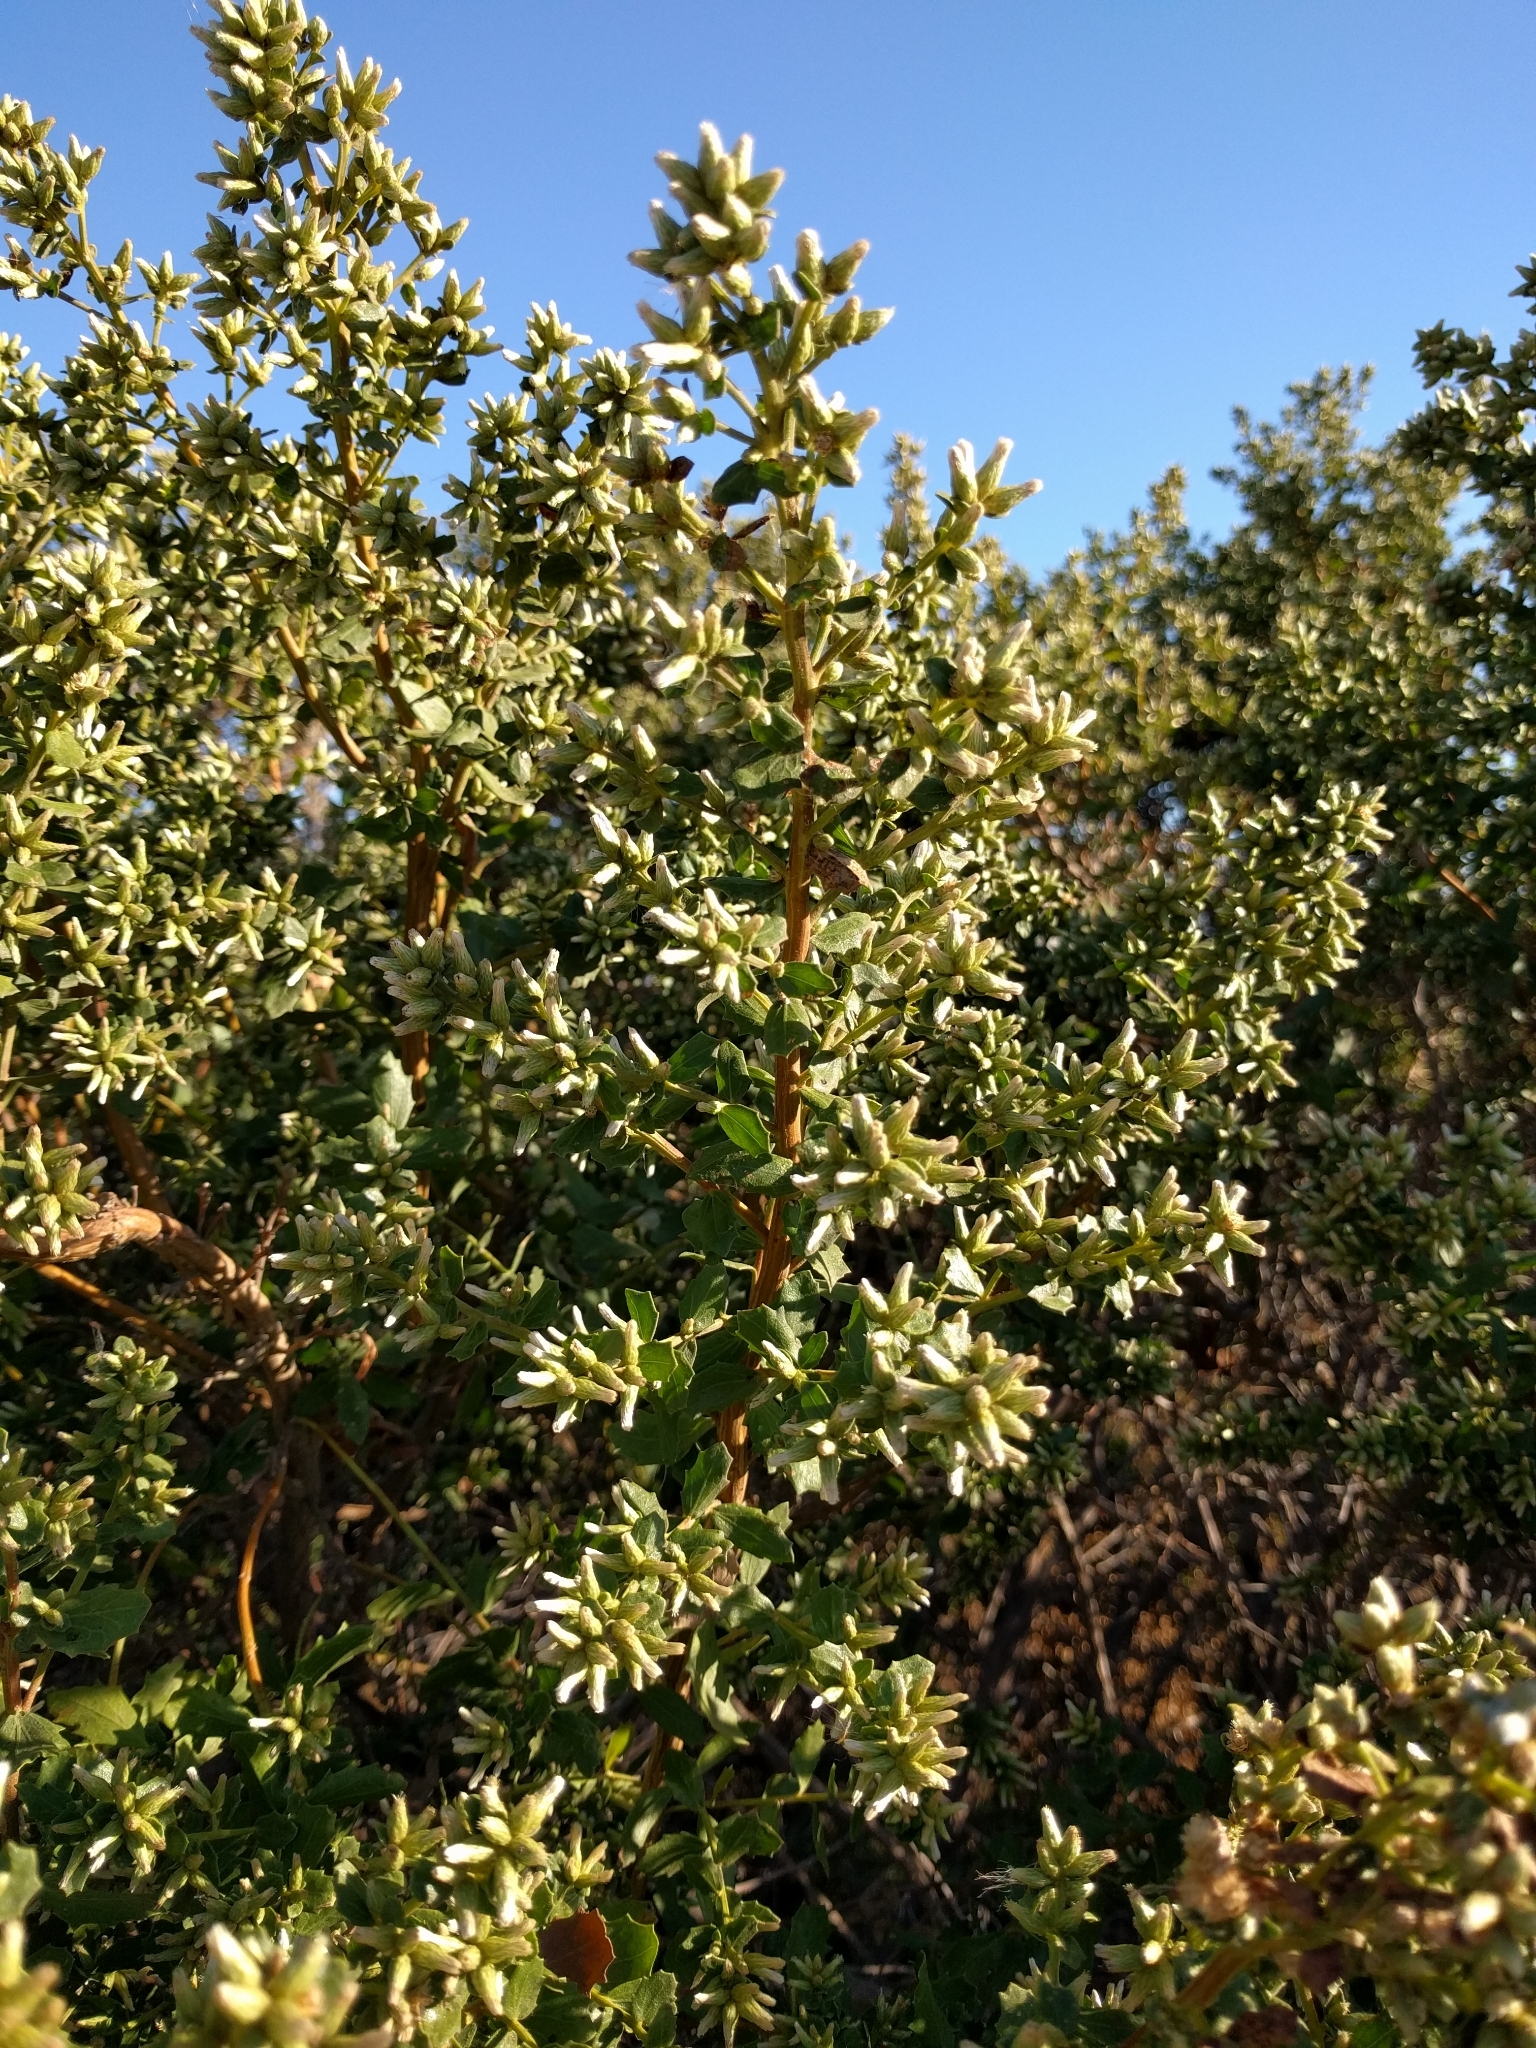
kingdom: Plantae
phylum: Tracheophyta
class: Magnoliopsida
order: Asterales
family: Asteraceae
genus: Baccharis
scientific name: Baccharis pilularis
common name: Coyotebrush
